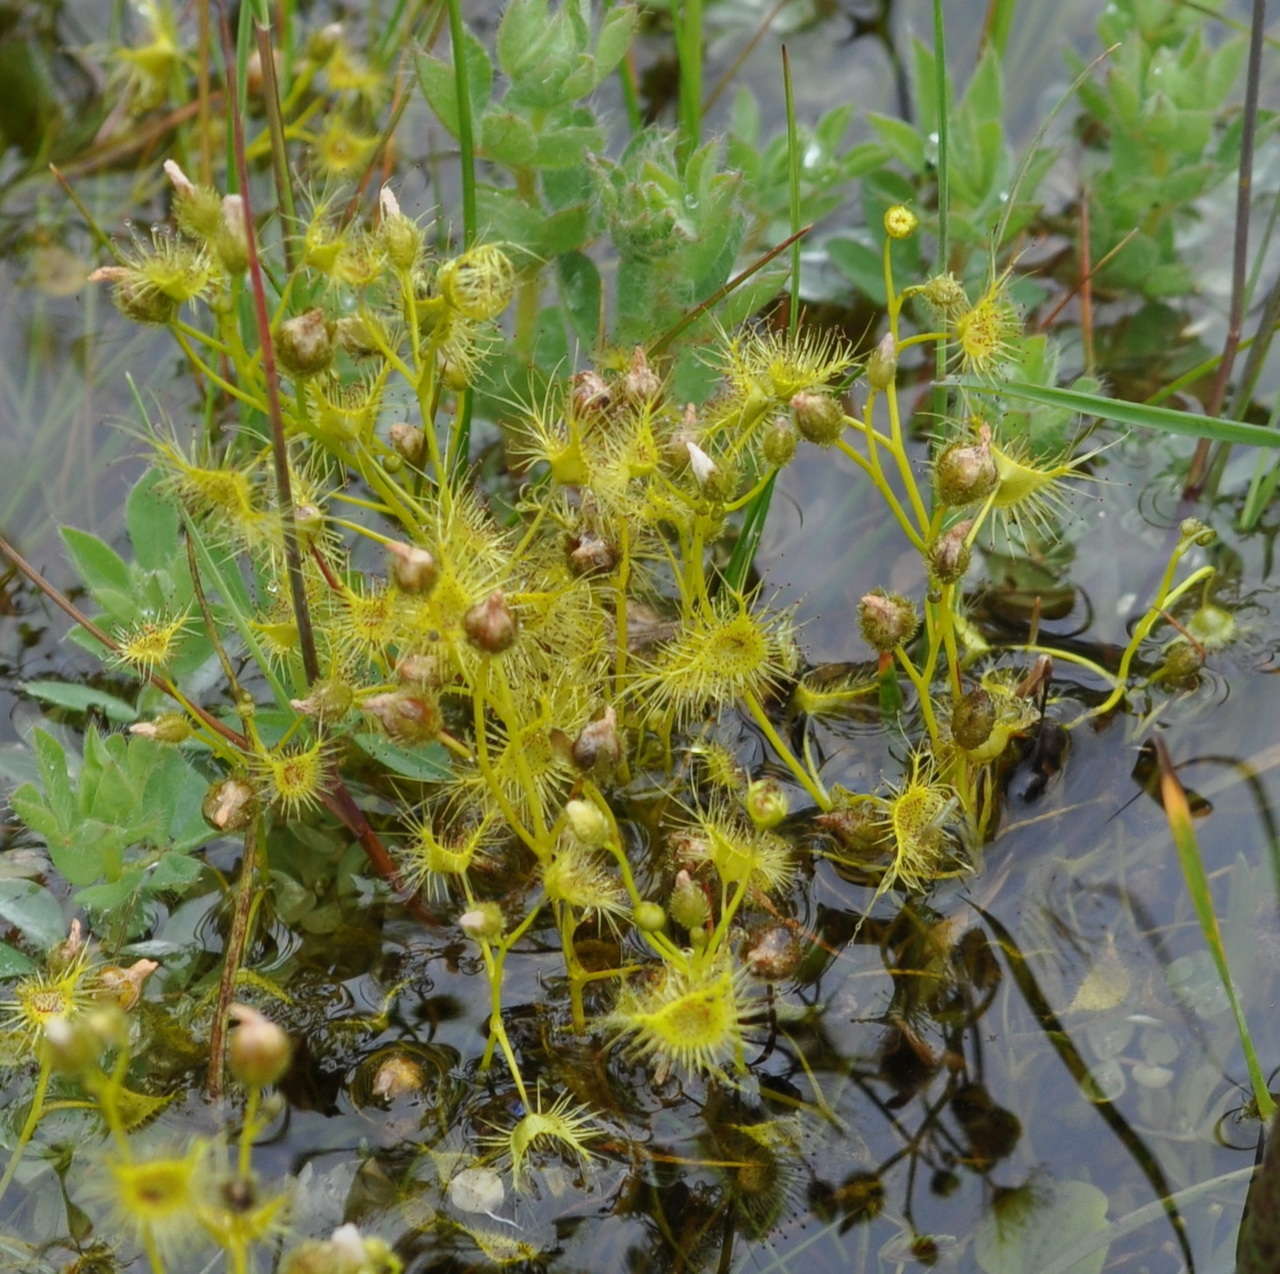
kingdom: Plantae
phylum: Tracheophyta
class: Magnoliopsida
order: Caryophyllales
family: Droseraceae
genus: Drosera
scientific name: Drosera hookeri
